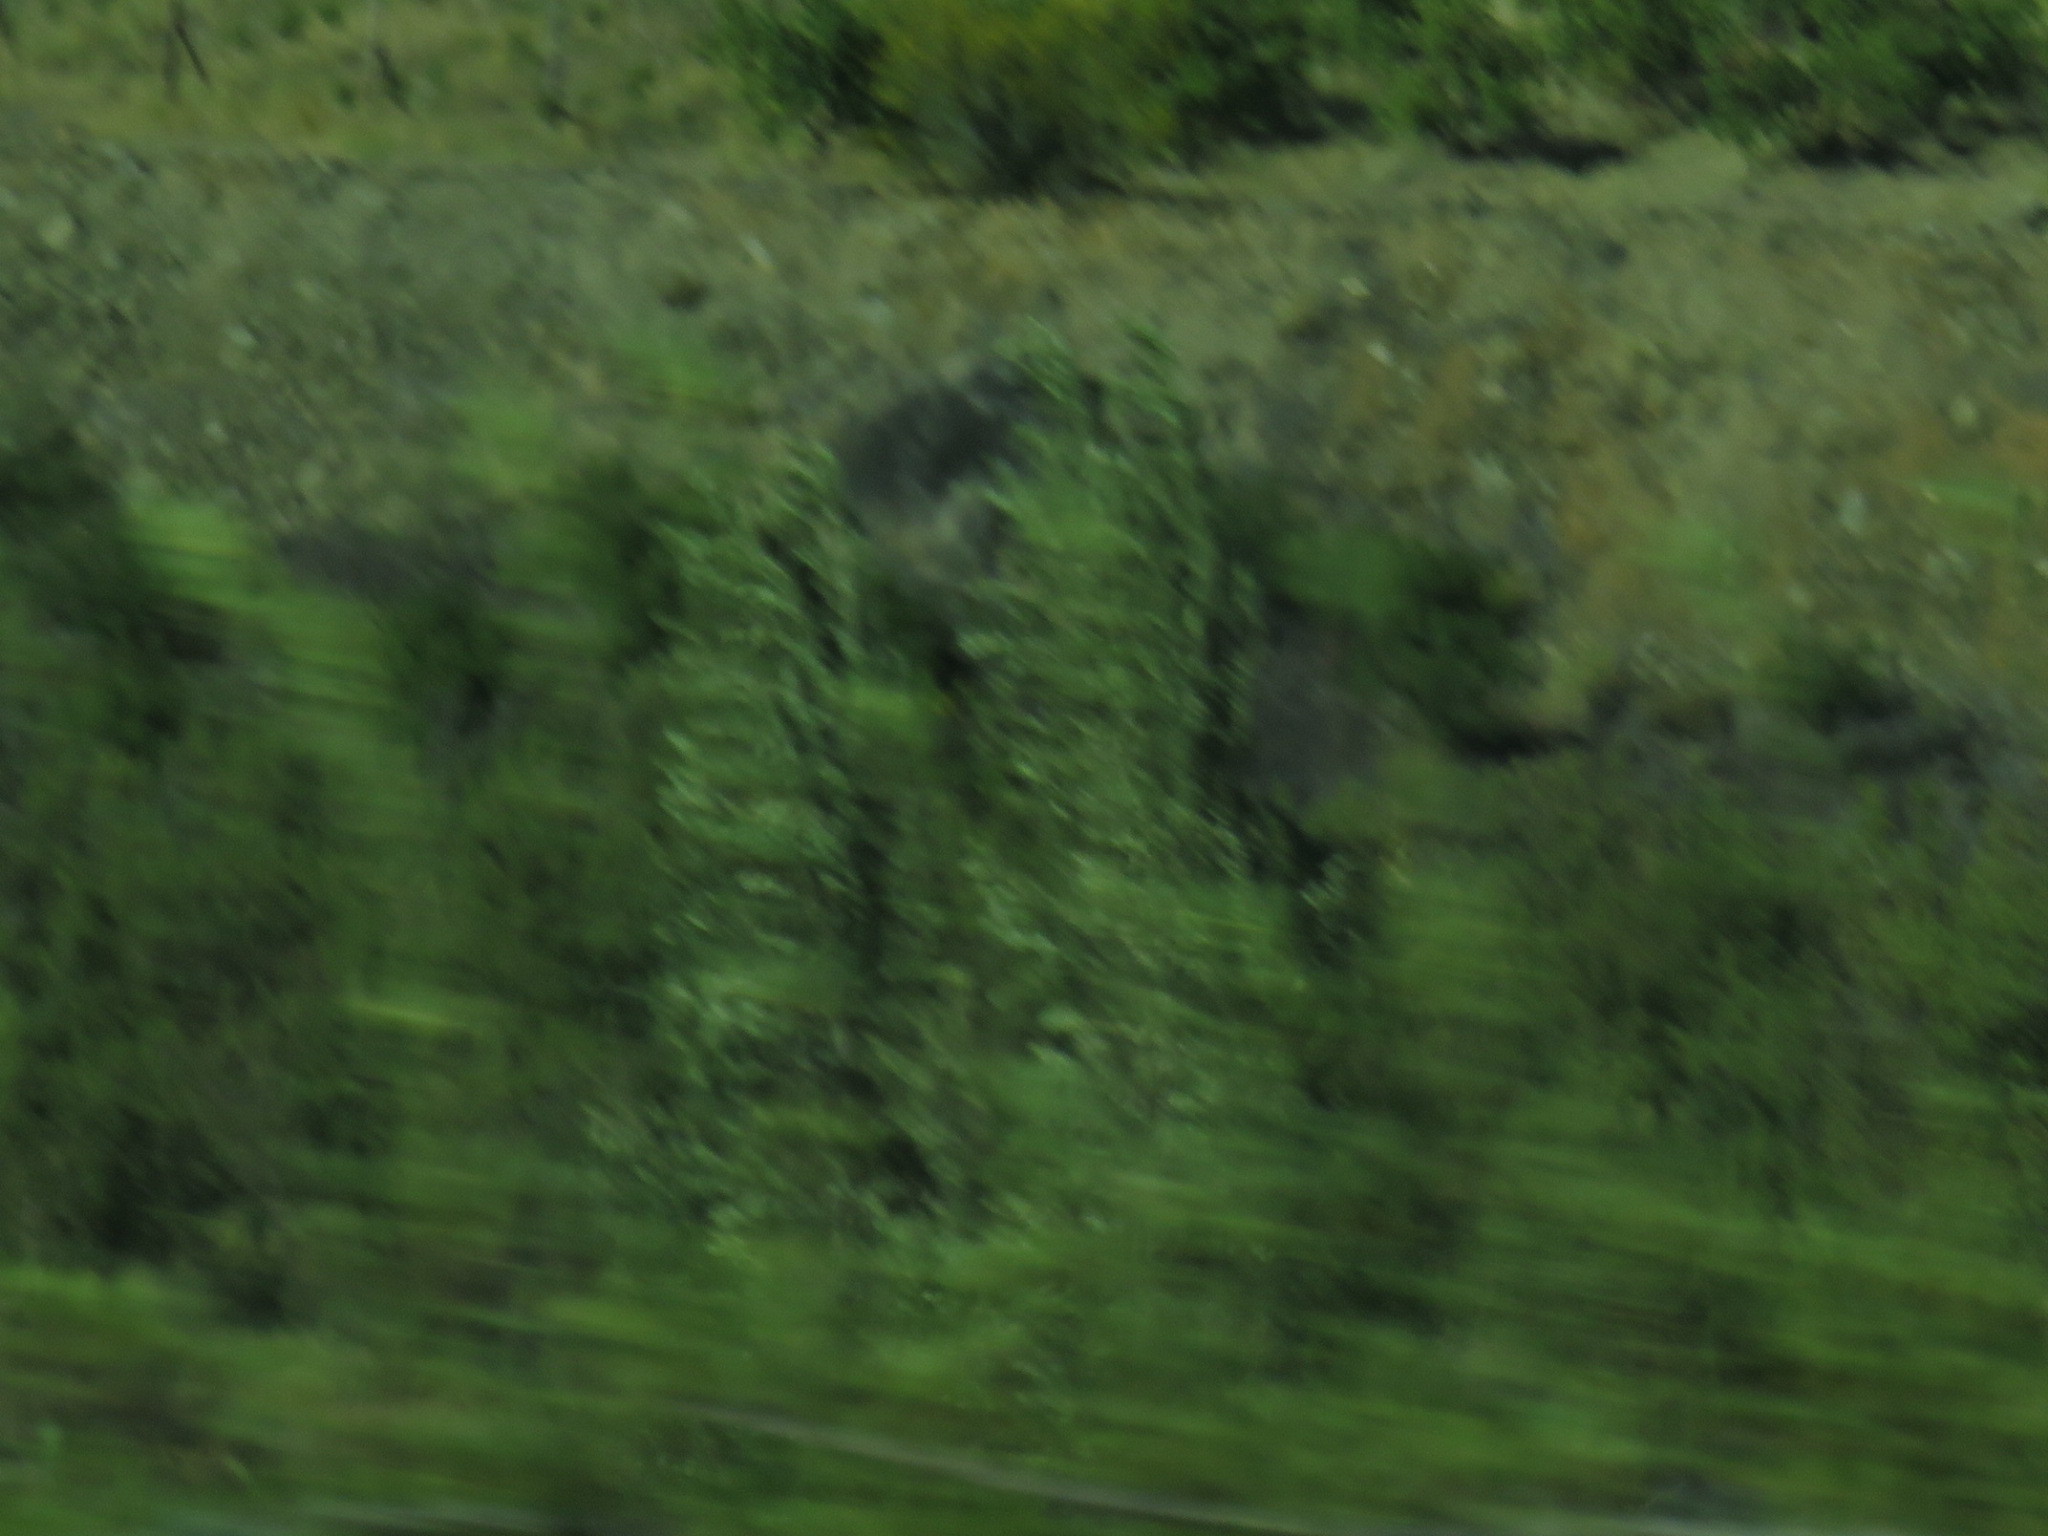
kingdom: Plantae
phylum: Tracheophyta
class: Magnoliopsida
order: Malpighiales
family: Salicaceae
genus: Populus
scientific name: Populus nigra
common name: Black poplar
